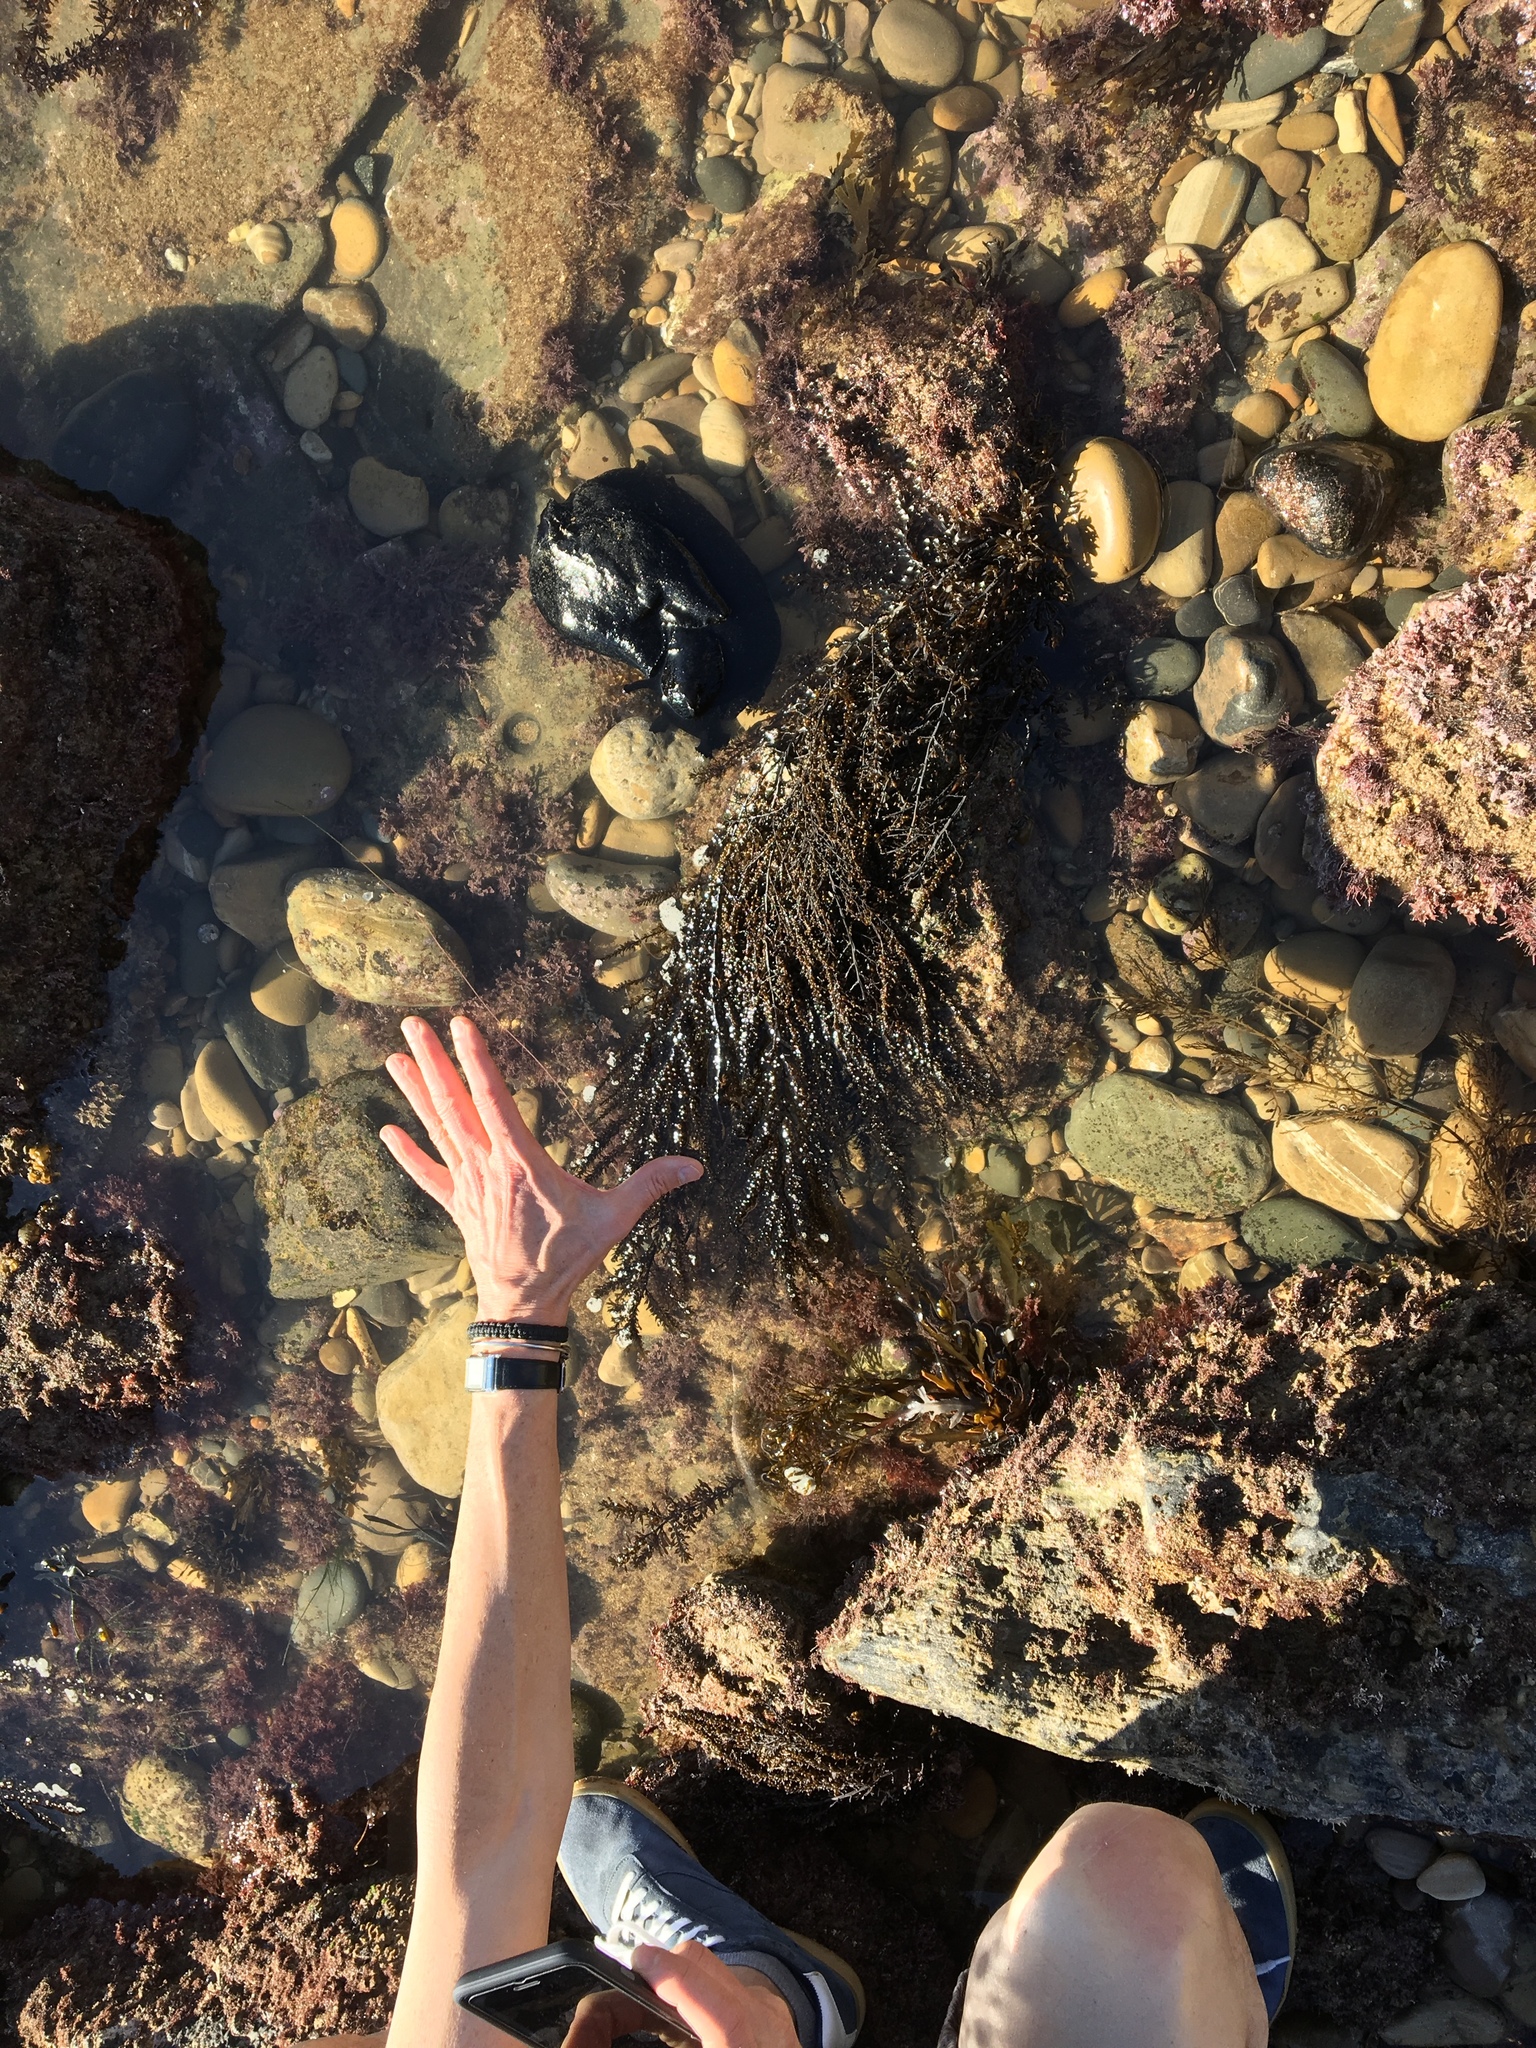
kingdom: Animalia
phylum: Mollusca
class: Gastropoda
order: Aplysiida
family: Aplysiidae
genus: Aplysia
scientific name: Aplysia vaccaria
